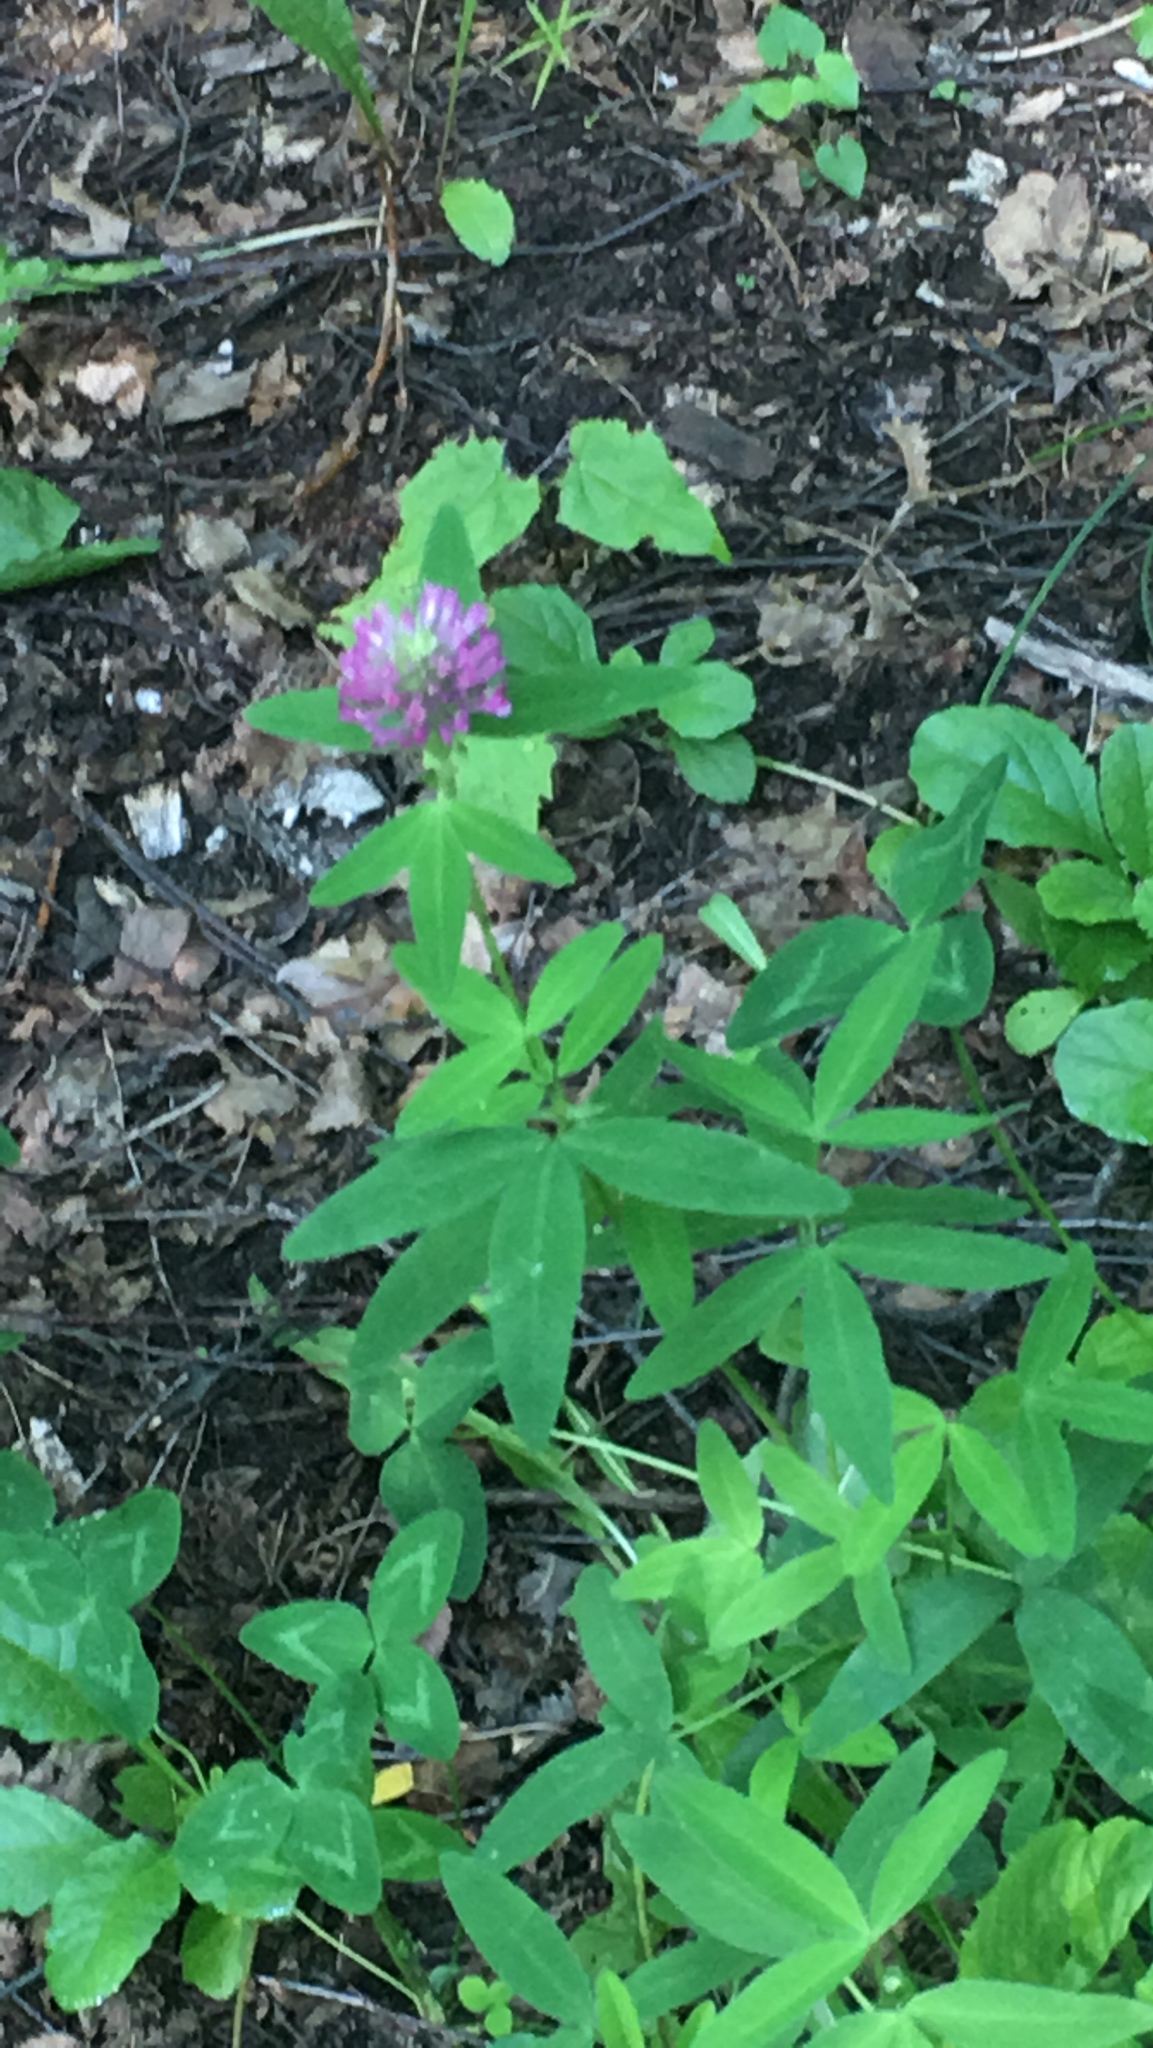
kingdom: Plantae
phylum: Tracheophyta
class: Magnoliopsida
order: Fabales
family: Fabaceae
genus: Trifolium
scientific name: Trifolium medium
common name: Zigzag clover
